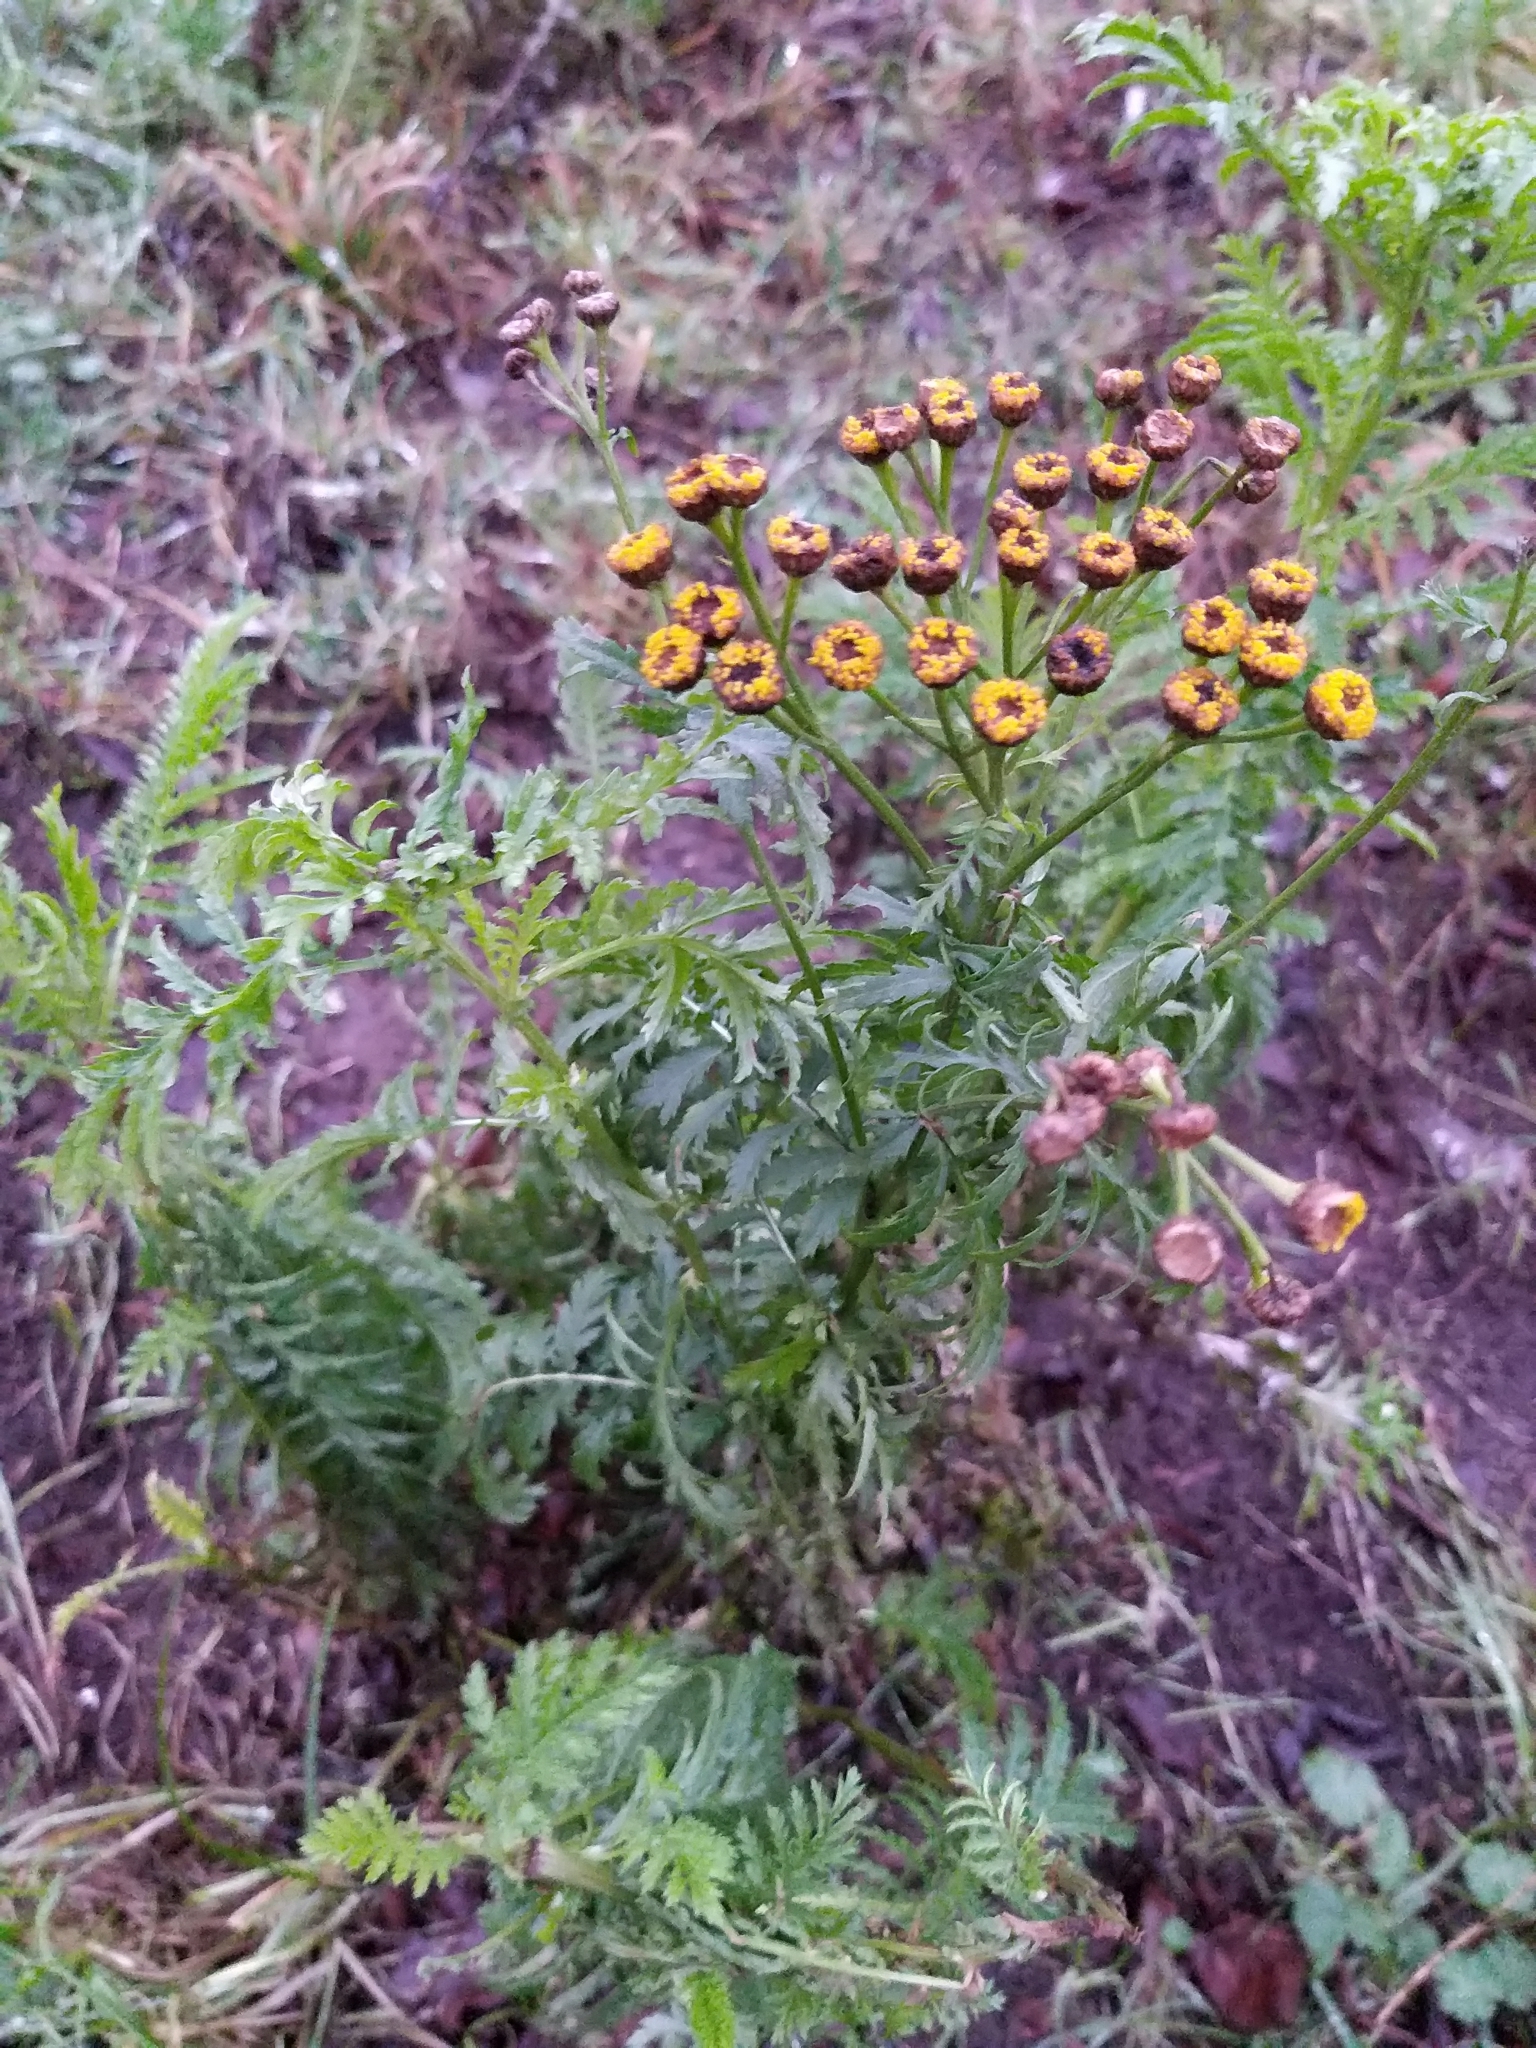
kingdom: Plantae
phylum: Tracheophyta
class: Magnoliopsida
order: Asterales
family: Asteraceae
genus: Tanacetum
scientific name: Tanacetum vulgare
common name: Common tansy
